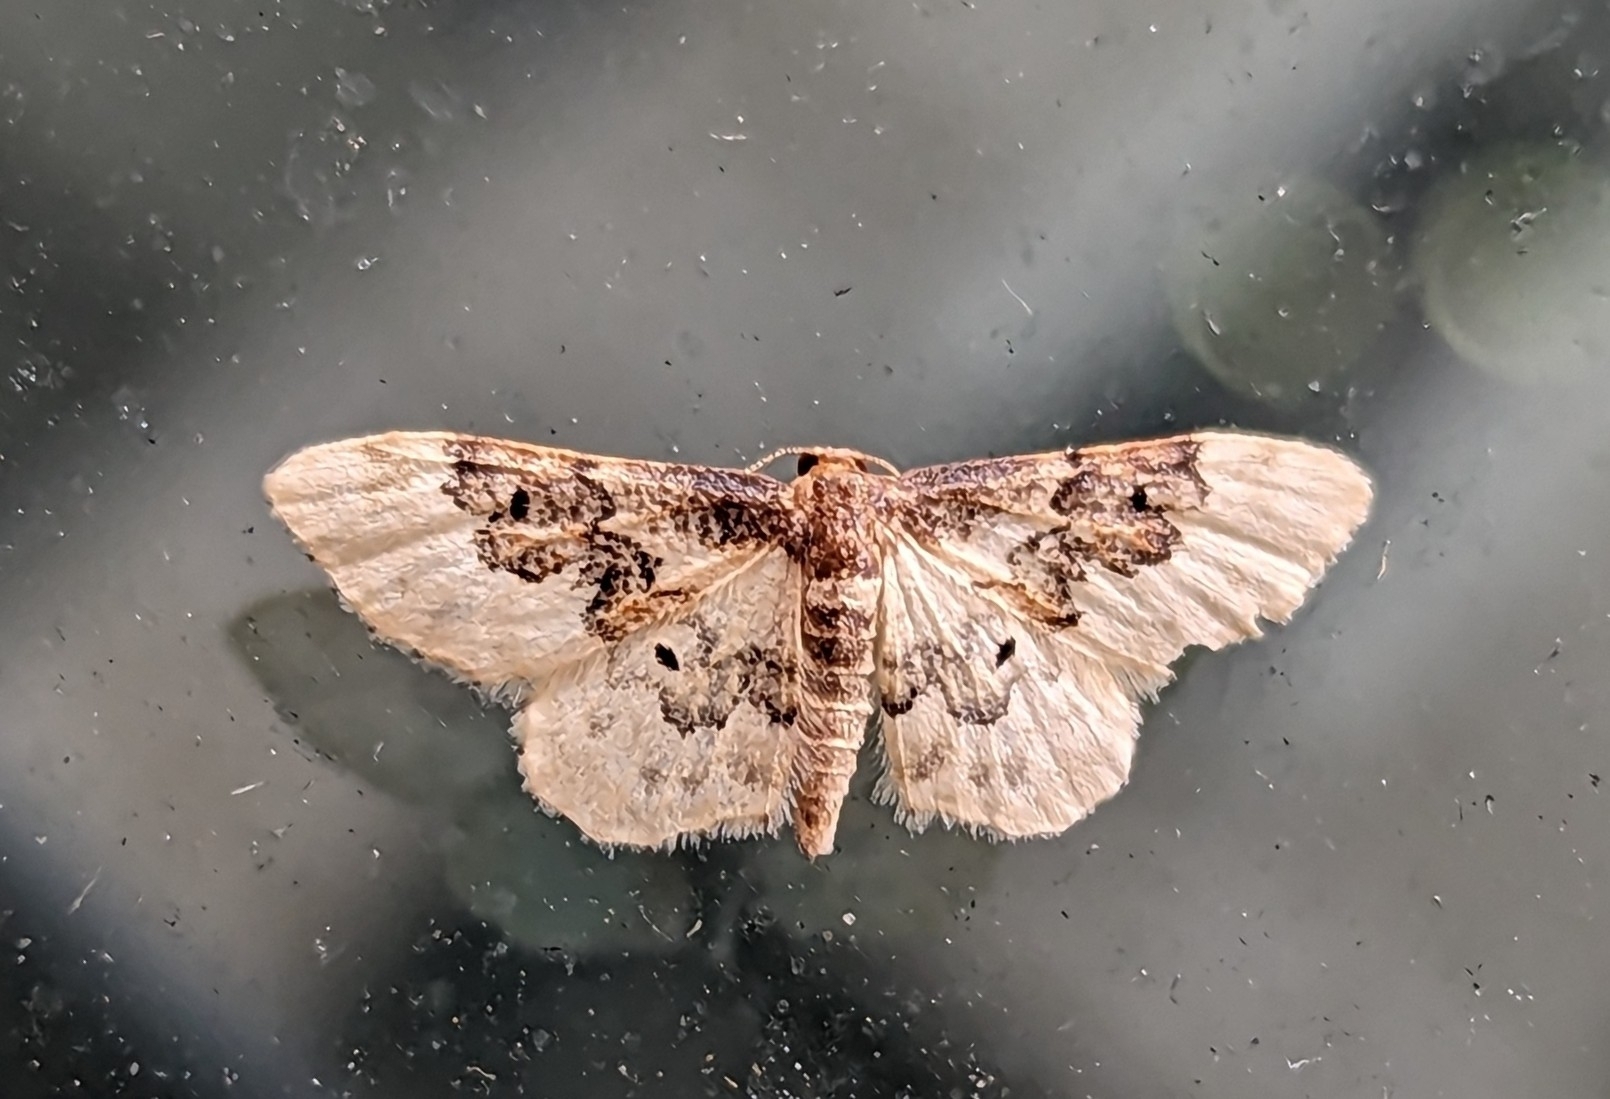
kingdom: Animalia
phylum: Arthropoda
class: Insecta
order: Lepidoptera
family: Geometridae
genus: Idaea
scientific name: Idaea rusticata
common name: Least carpet
